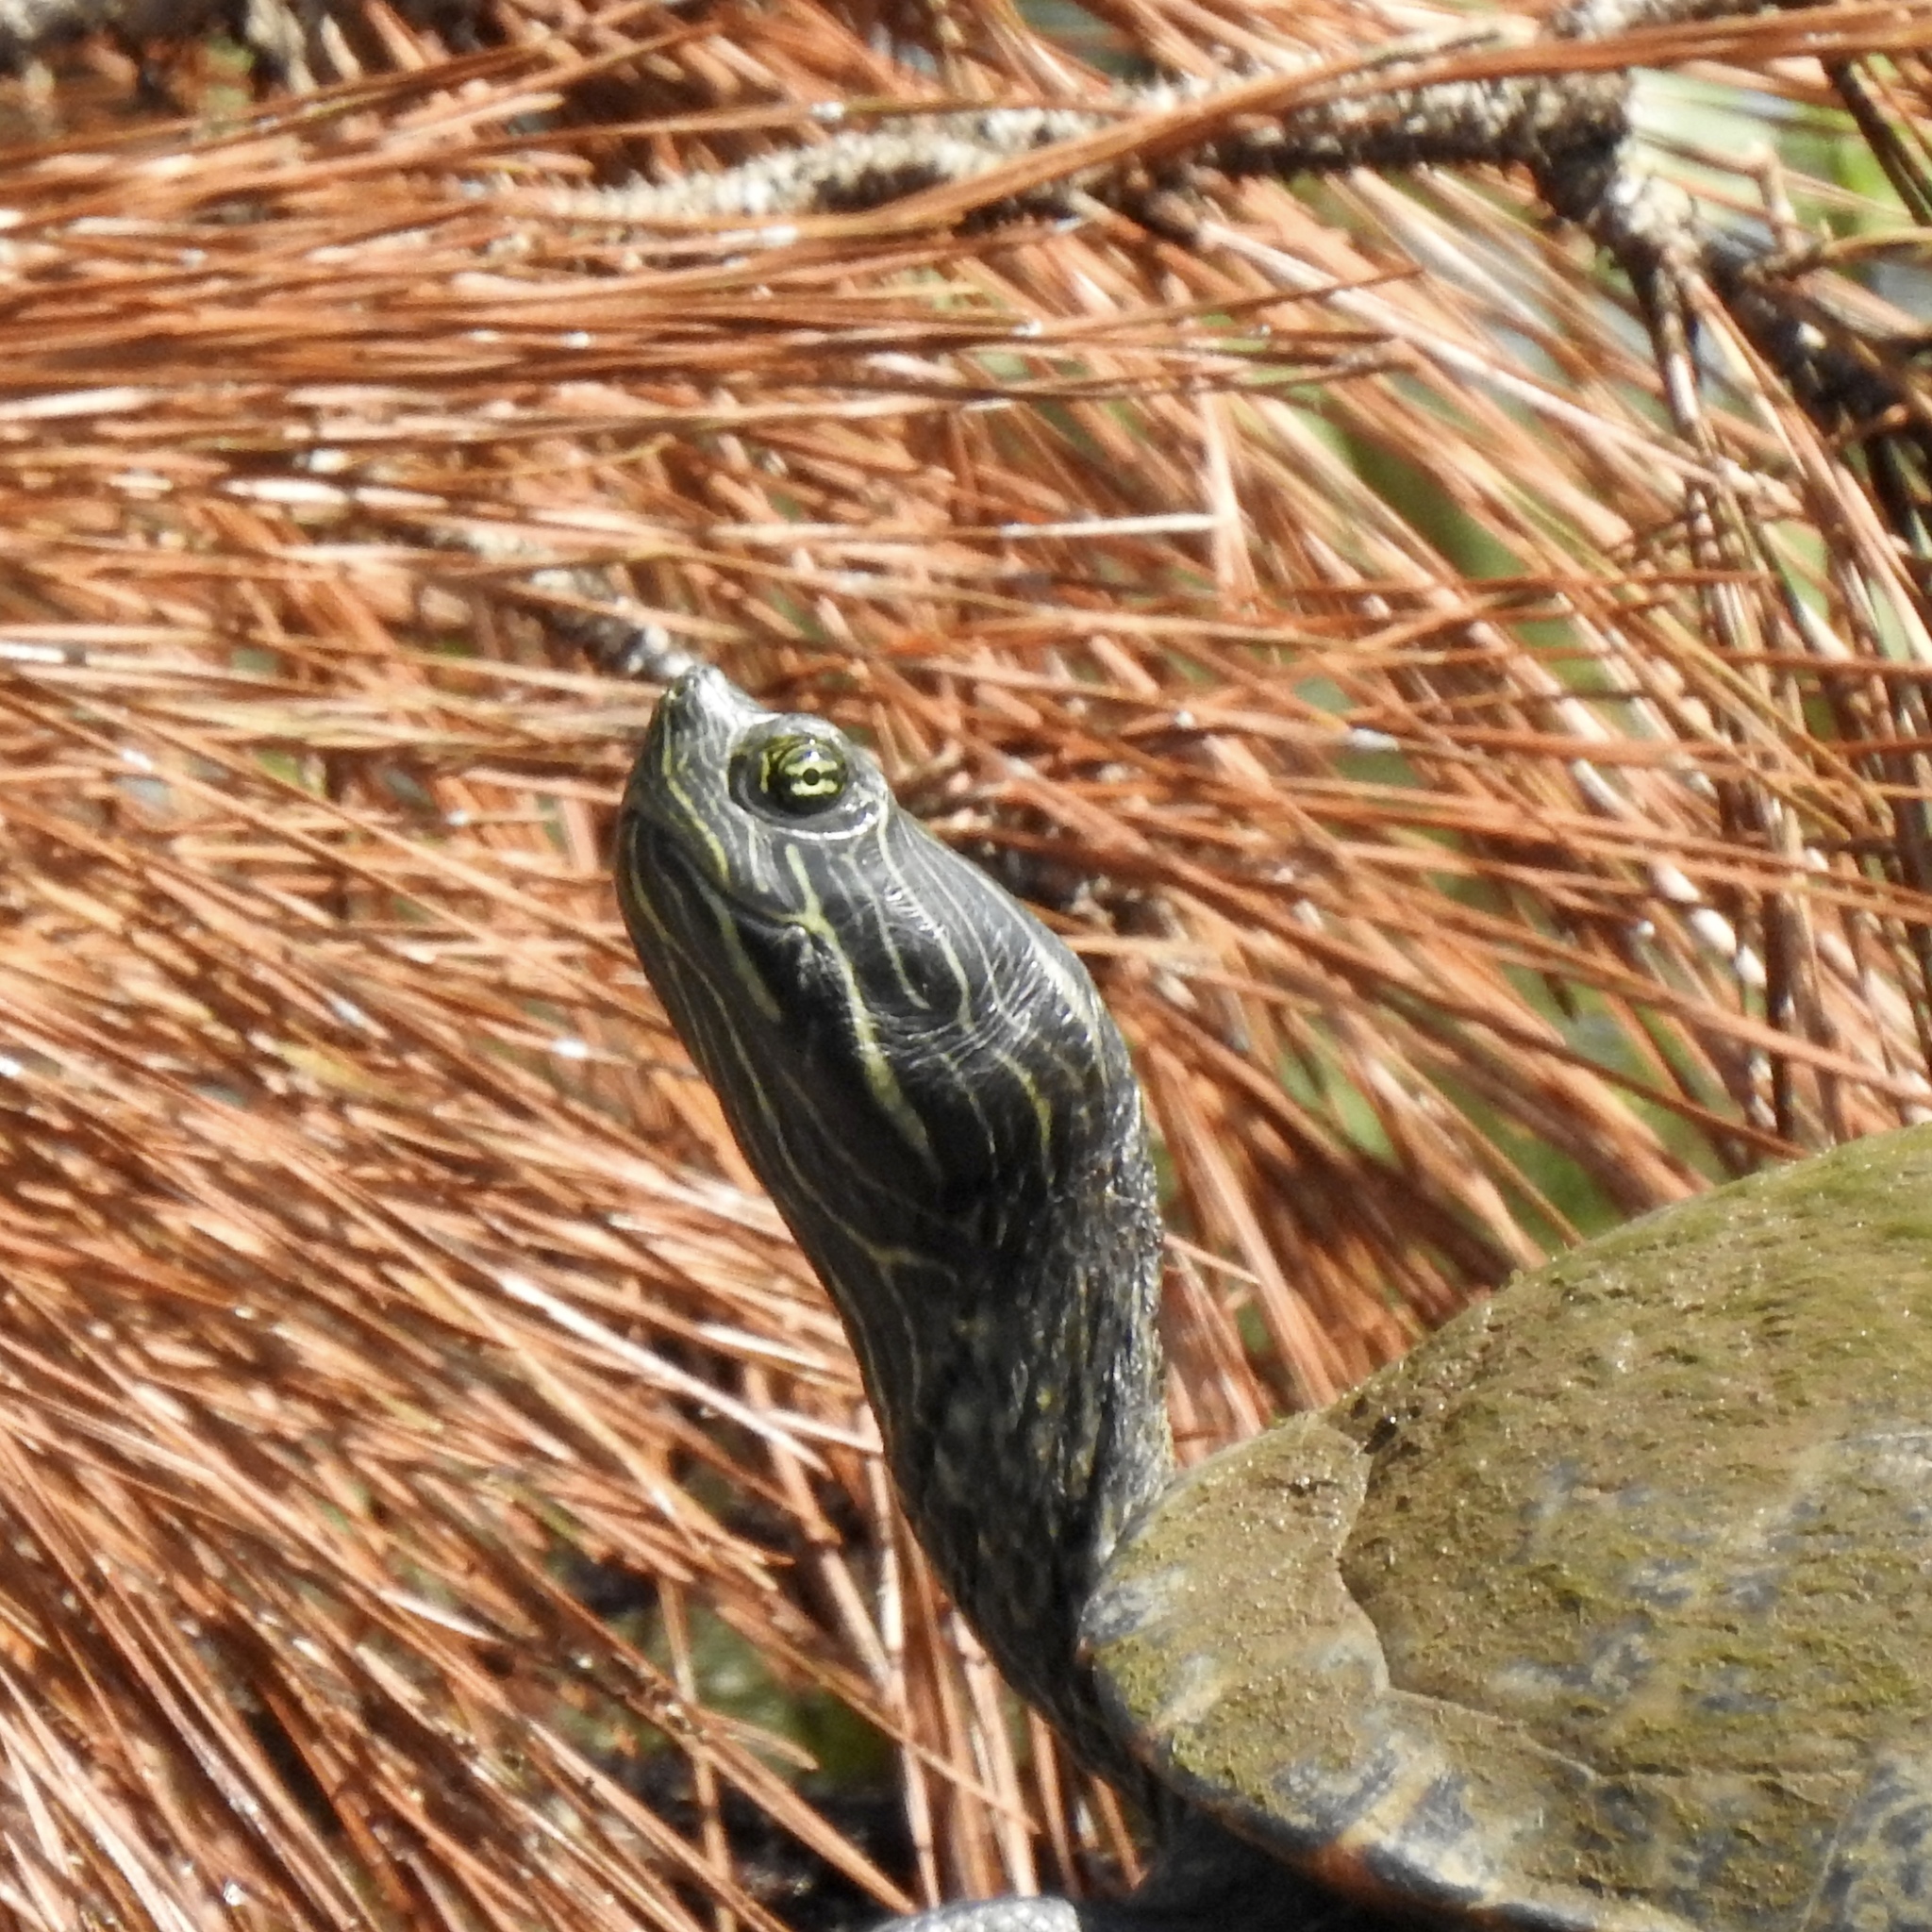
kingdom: Animalia
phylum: Chordata
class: Testudines
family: Emydidae
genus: Pseudemys
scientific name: Pseudemys concinna
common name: Eastern river cooter
